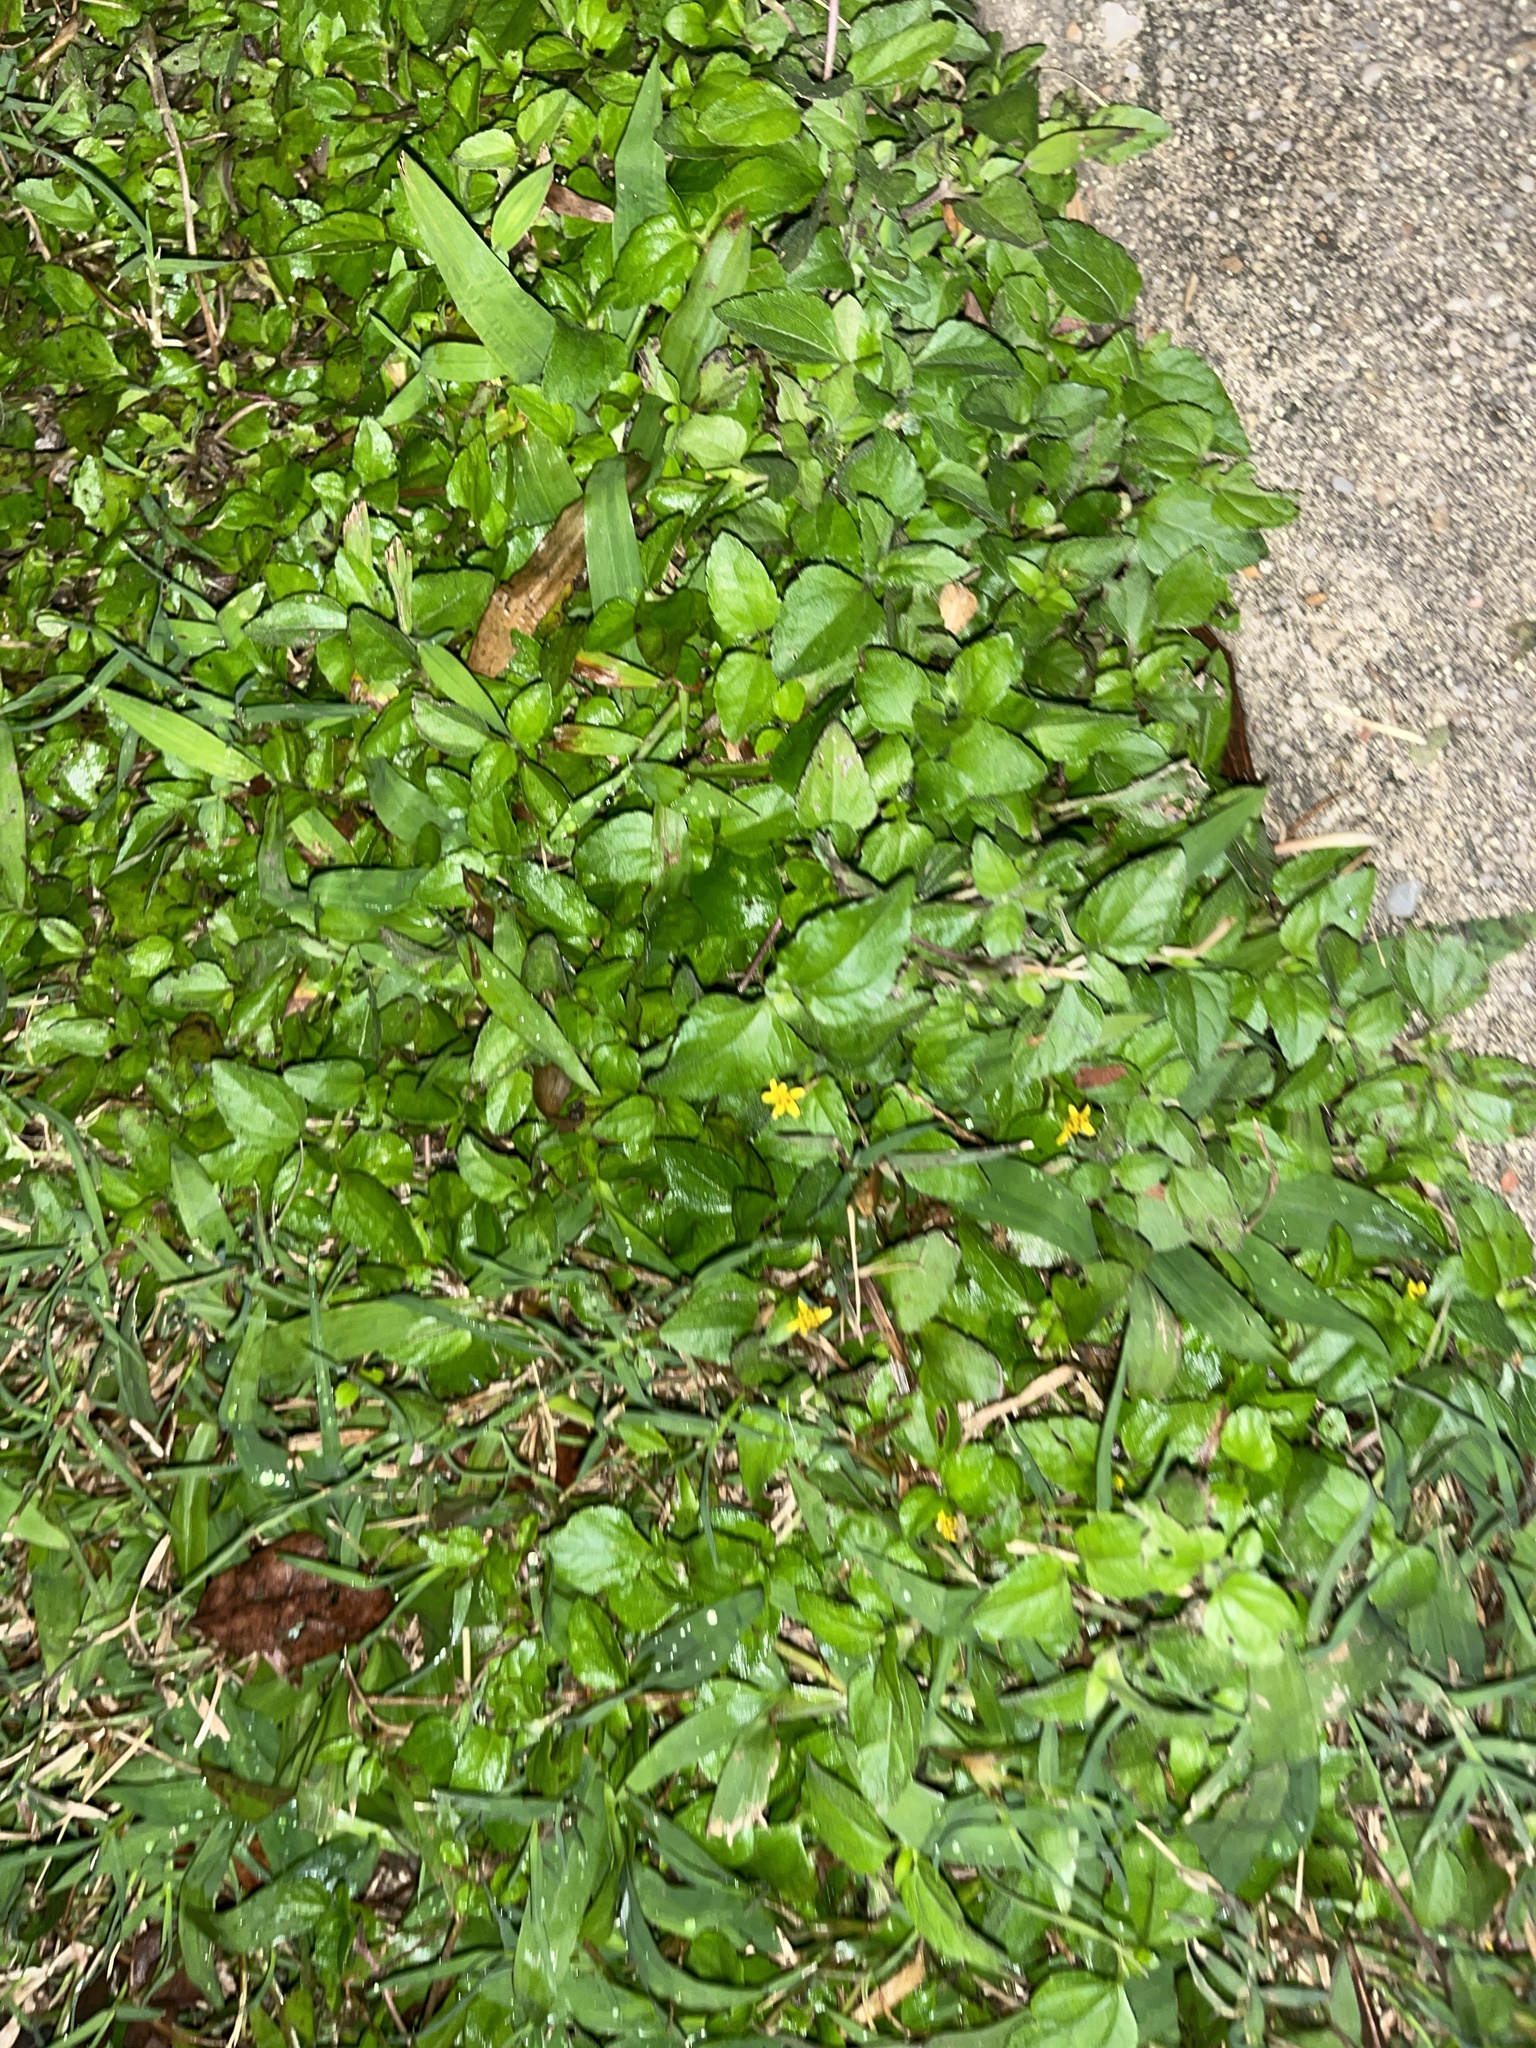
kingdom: Plantae
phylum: Tracheophyta
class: Magnoliopsida
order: Asterales
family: Asteraceae
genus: Calyptocarpus
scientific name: Calyptocarpus vialis
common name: Straggler daisy
